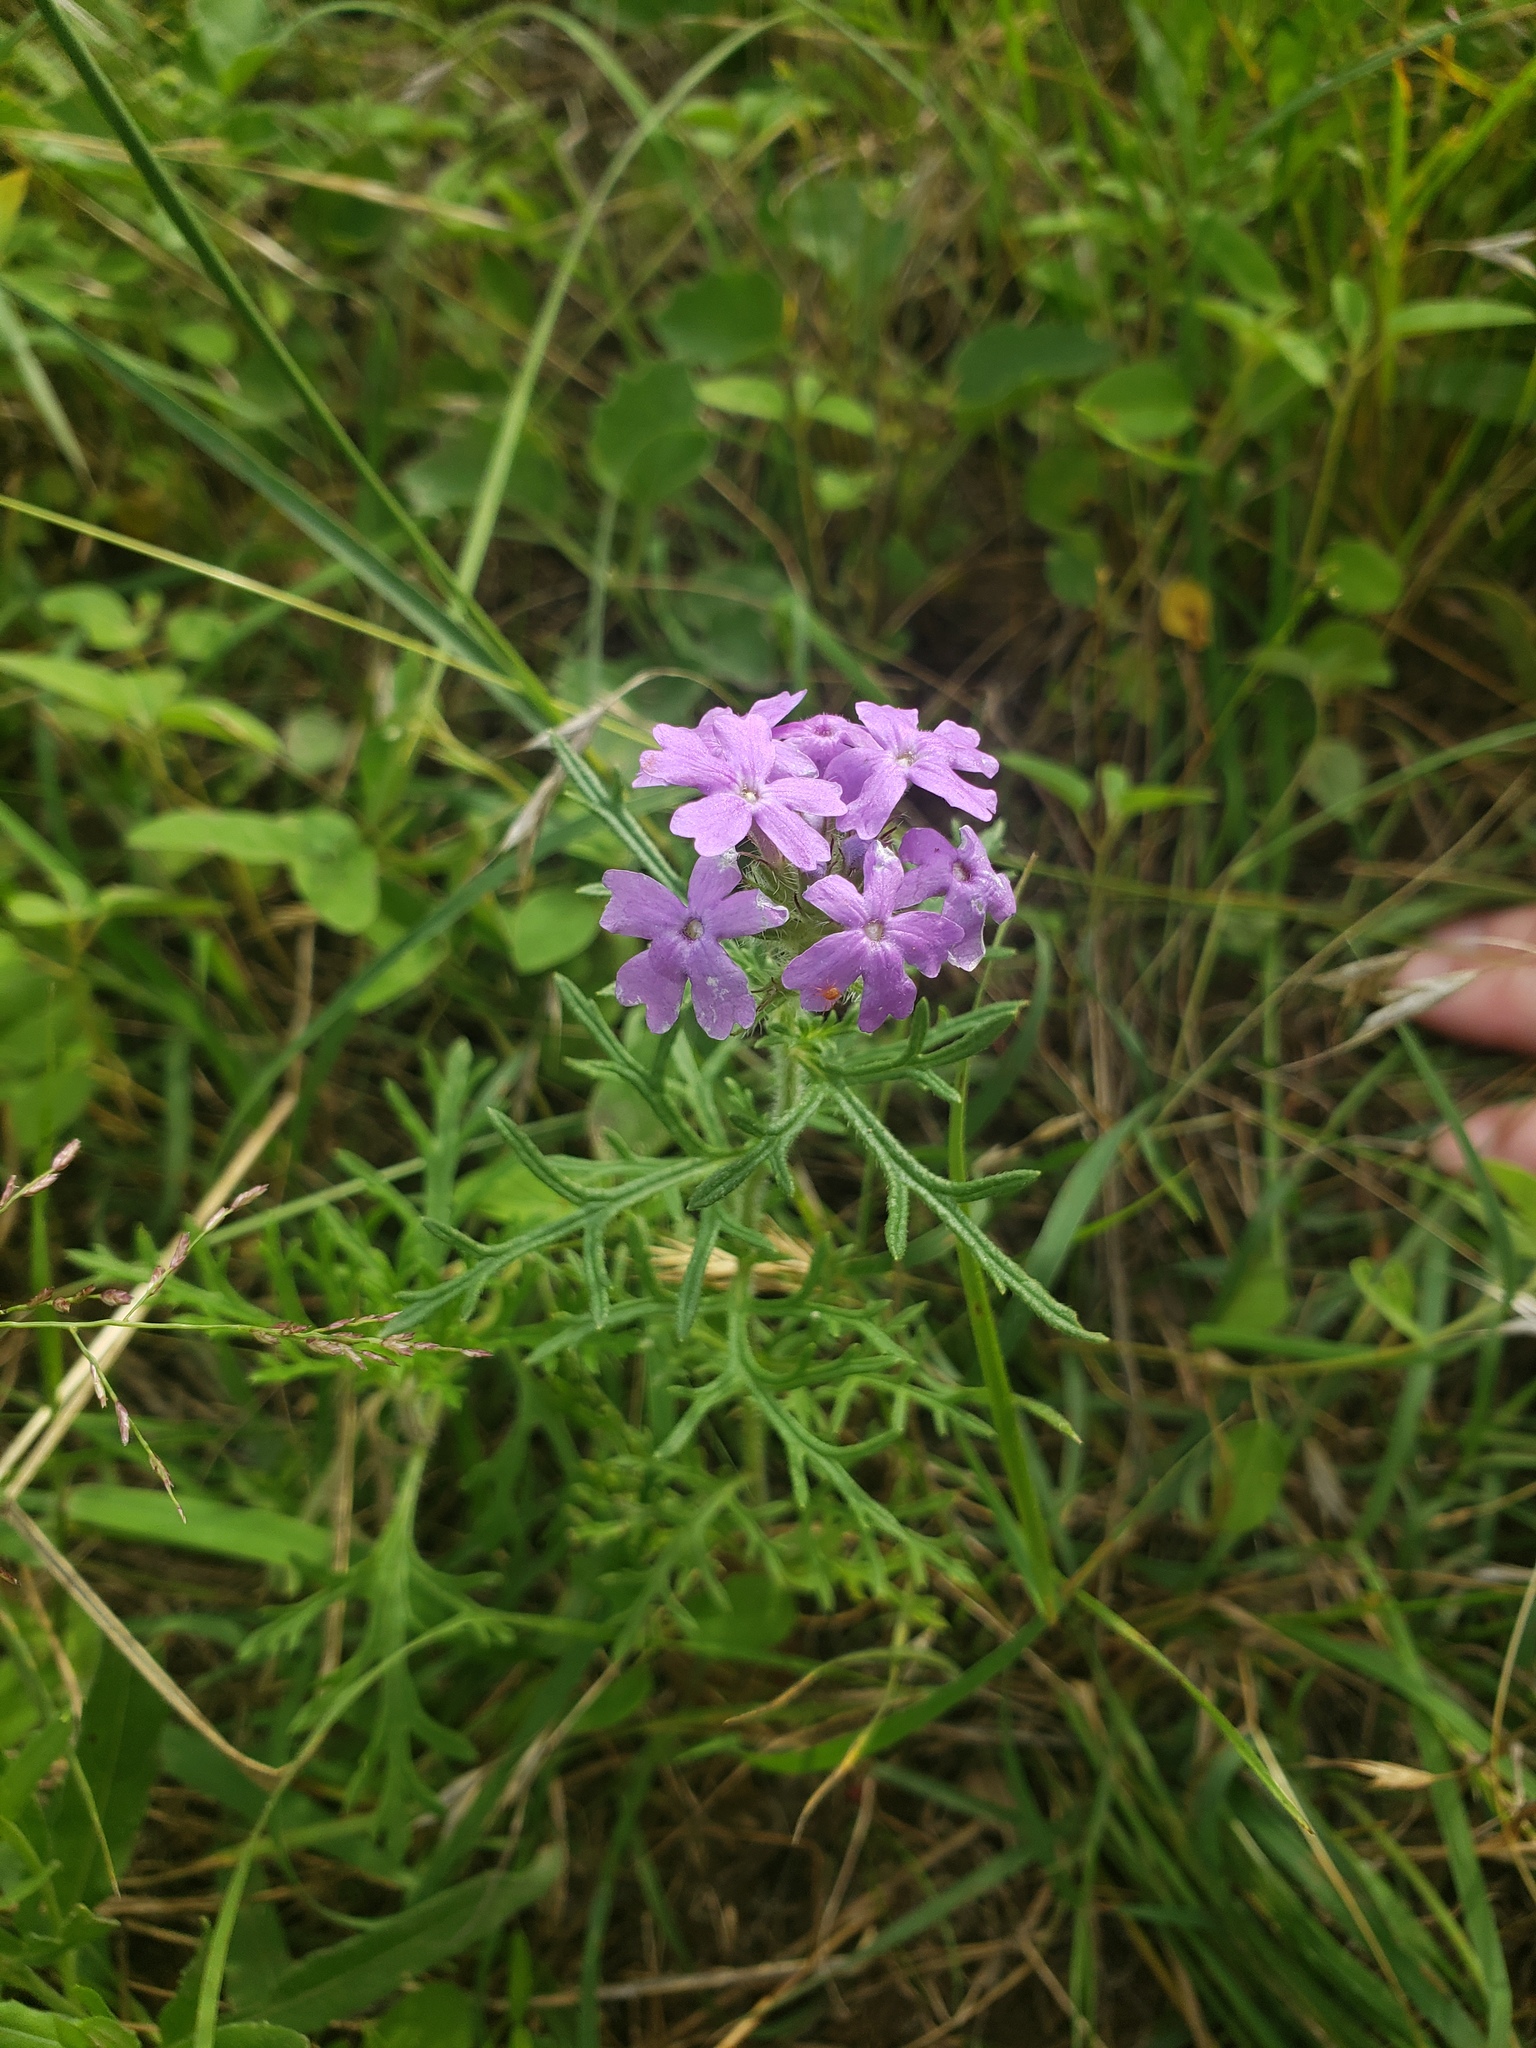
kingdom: Plantae
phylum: Tracheophyta
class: Magnoliopsida
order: Lamiales
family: Verbenaceae
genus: Verbena
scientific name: Verbena bipinnatifida
